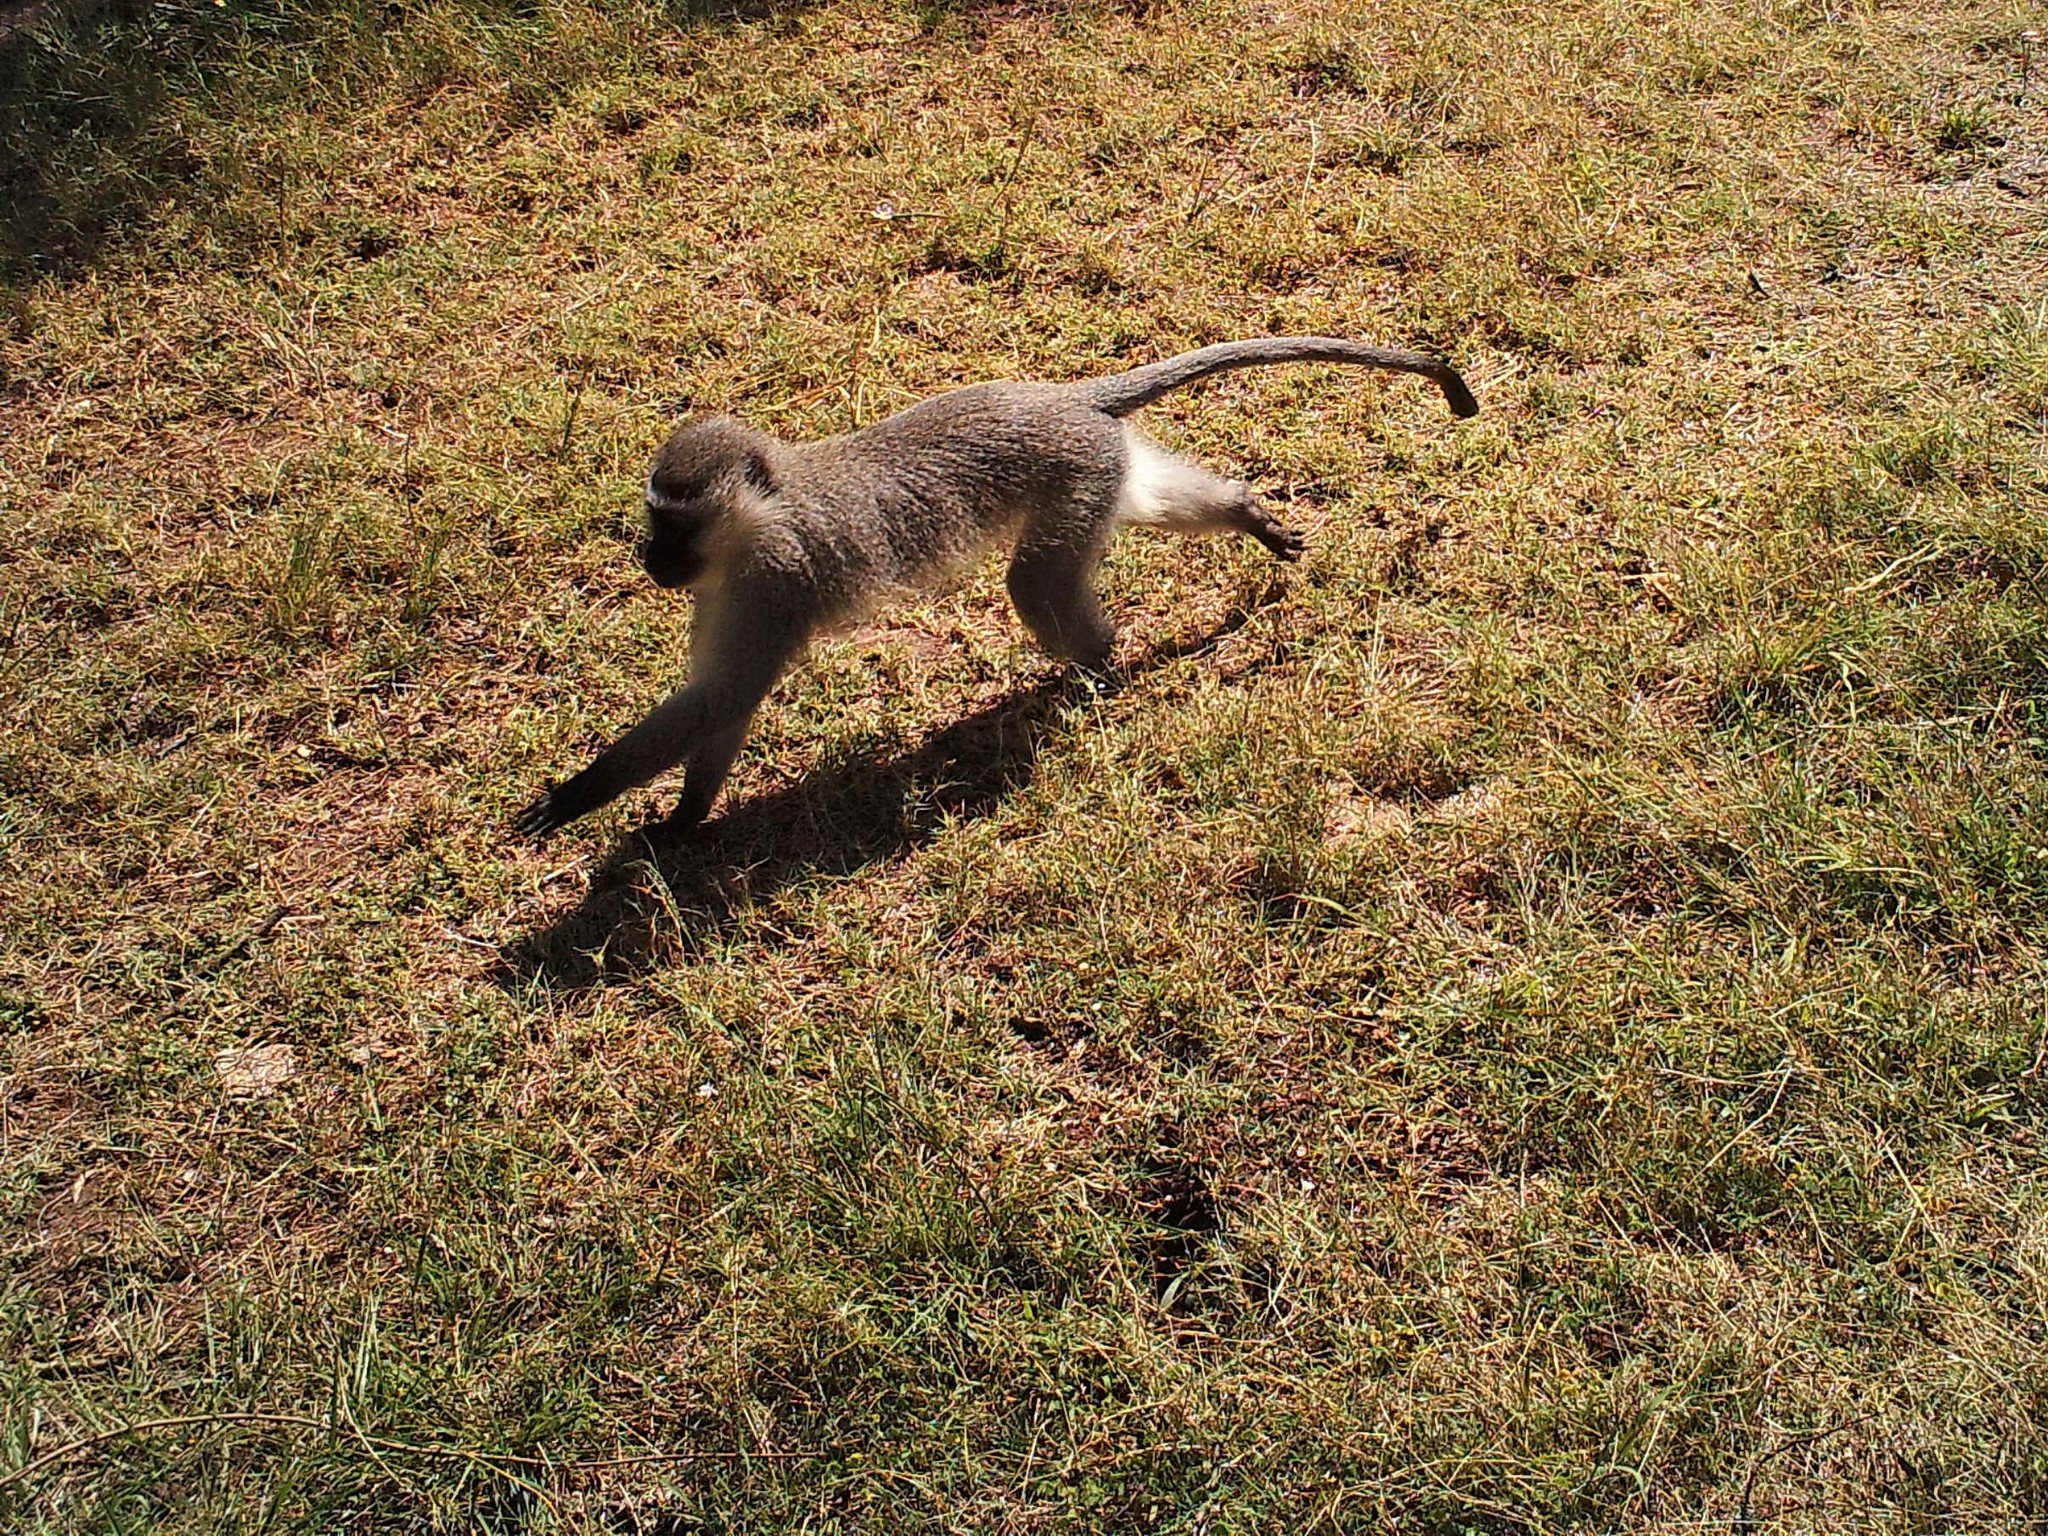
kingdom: Animalia
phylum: Chordata
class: Mammalia
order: Primates
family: Cercopithecidae
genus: Chlorocebus
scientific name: Chlorocebus pygerythrus
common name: Vervet monkey
